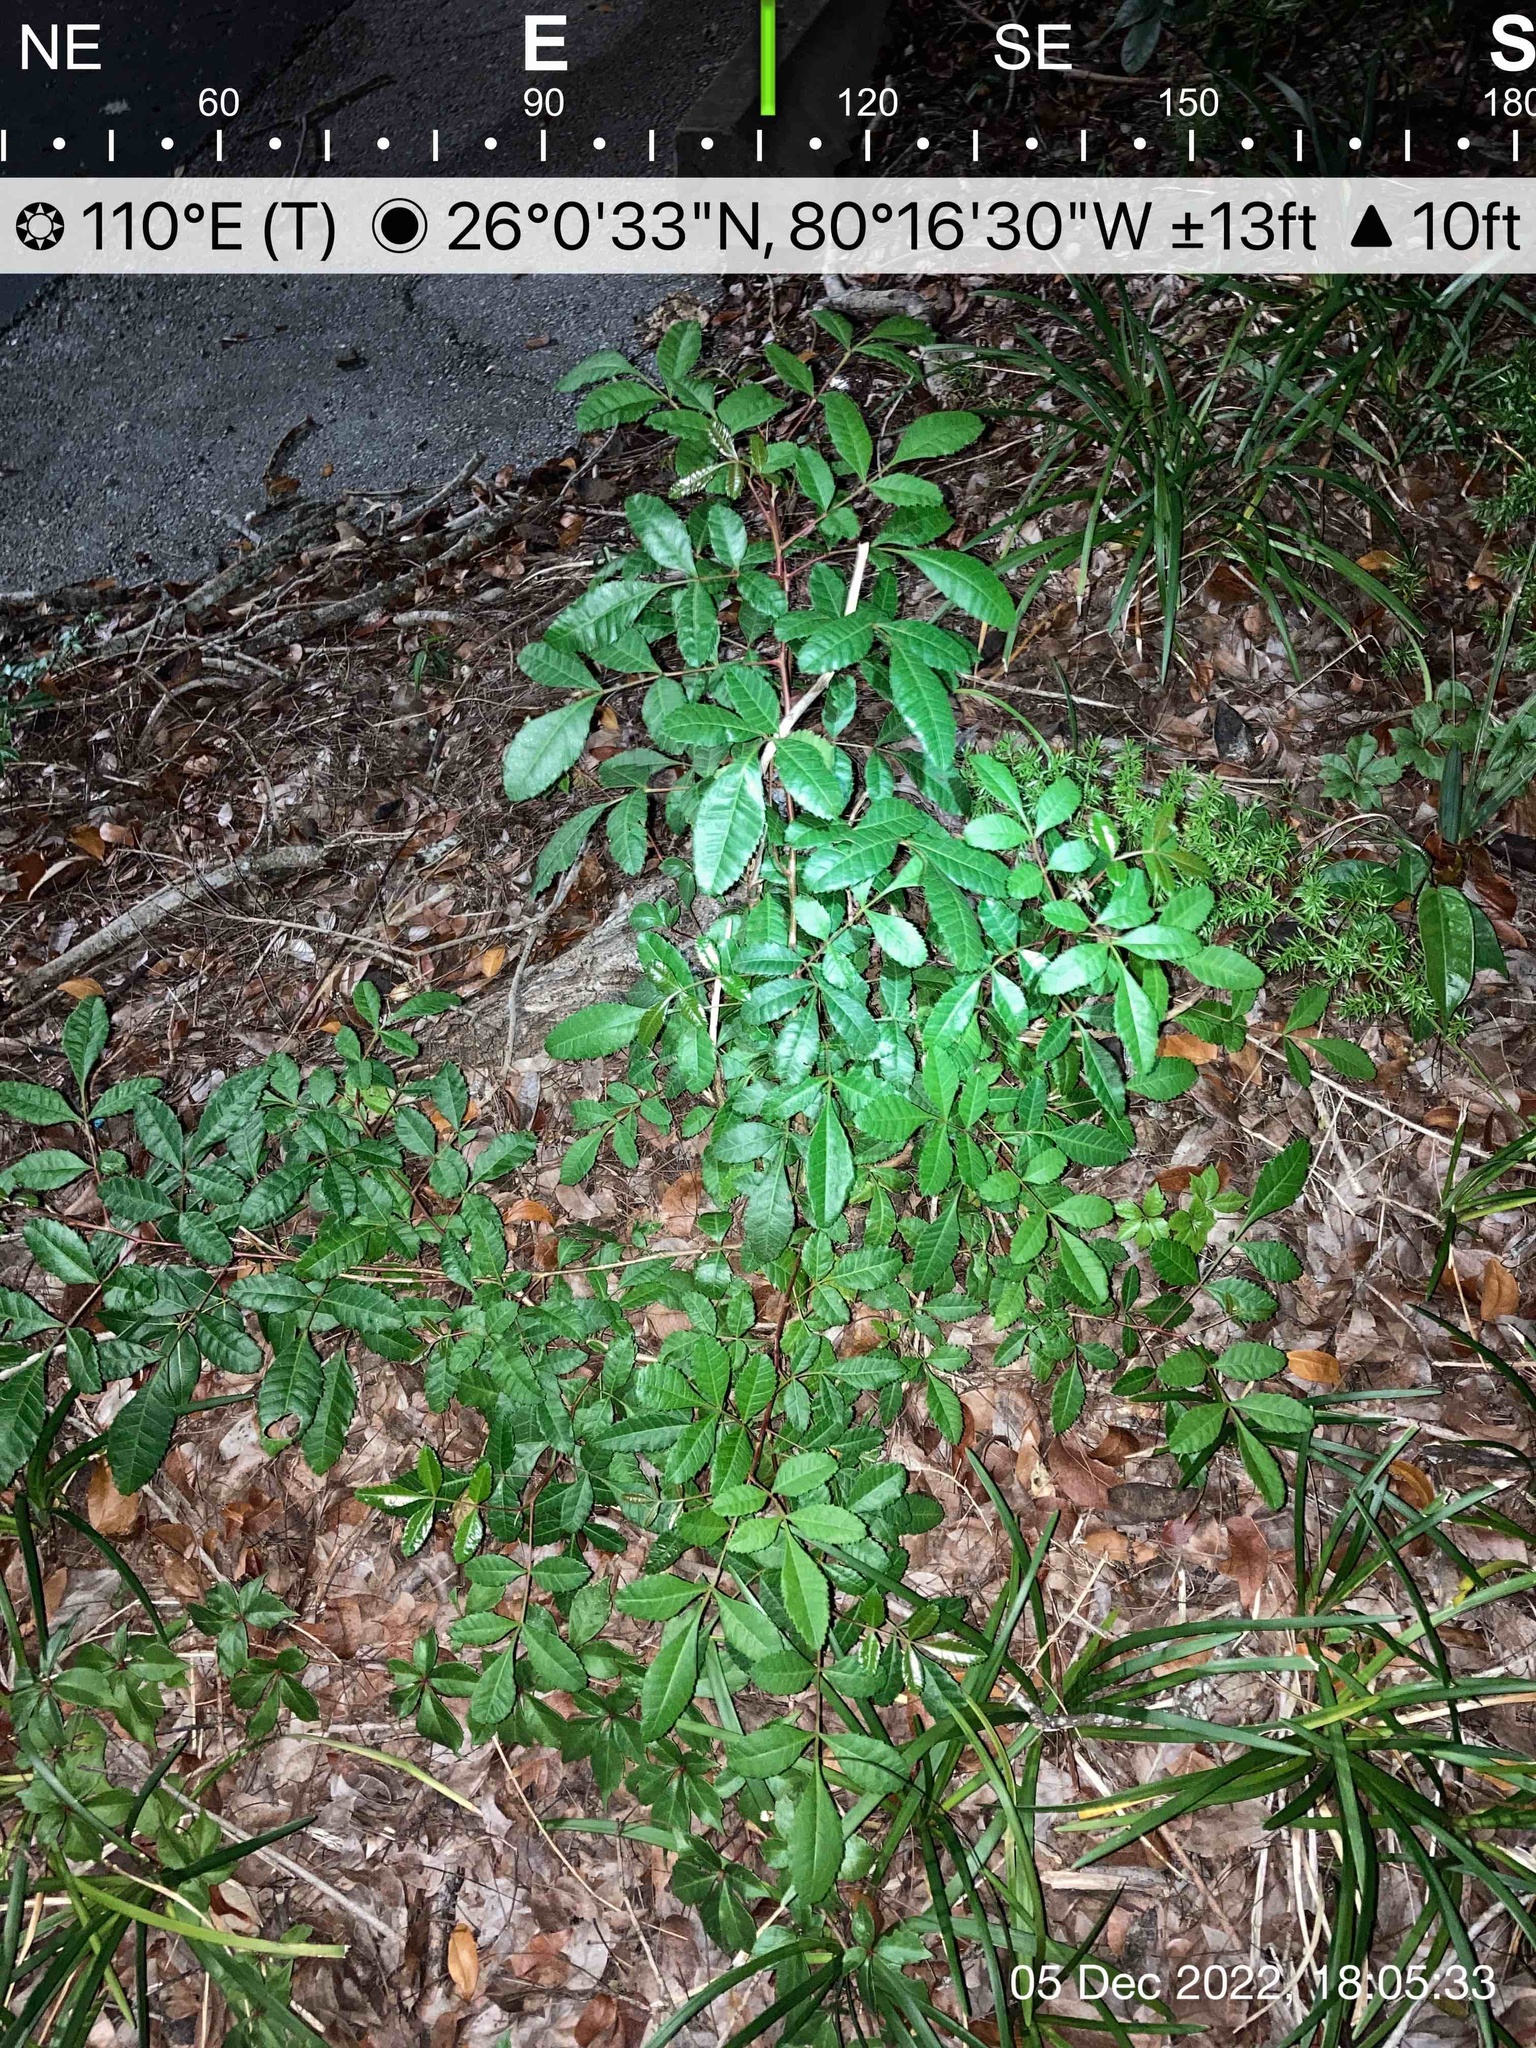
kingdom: Plantae
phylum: Tracheophyta
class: Magnoliopsida
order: Sapindales
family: Anacardiaceae
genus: Schinus
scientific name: Schinus terebinthifolia
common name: Brazilian peppertree
